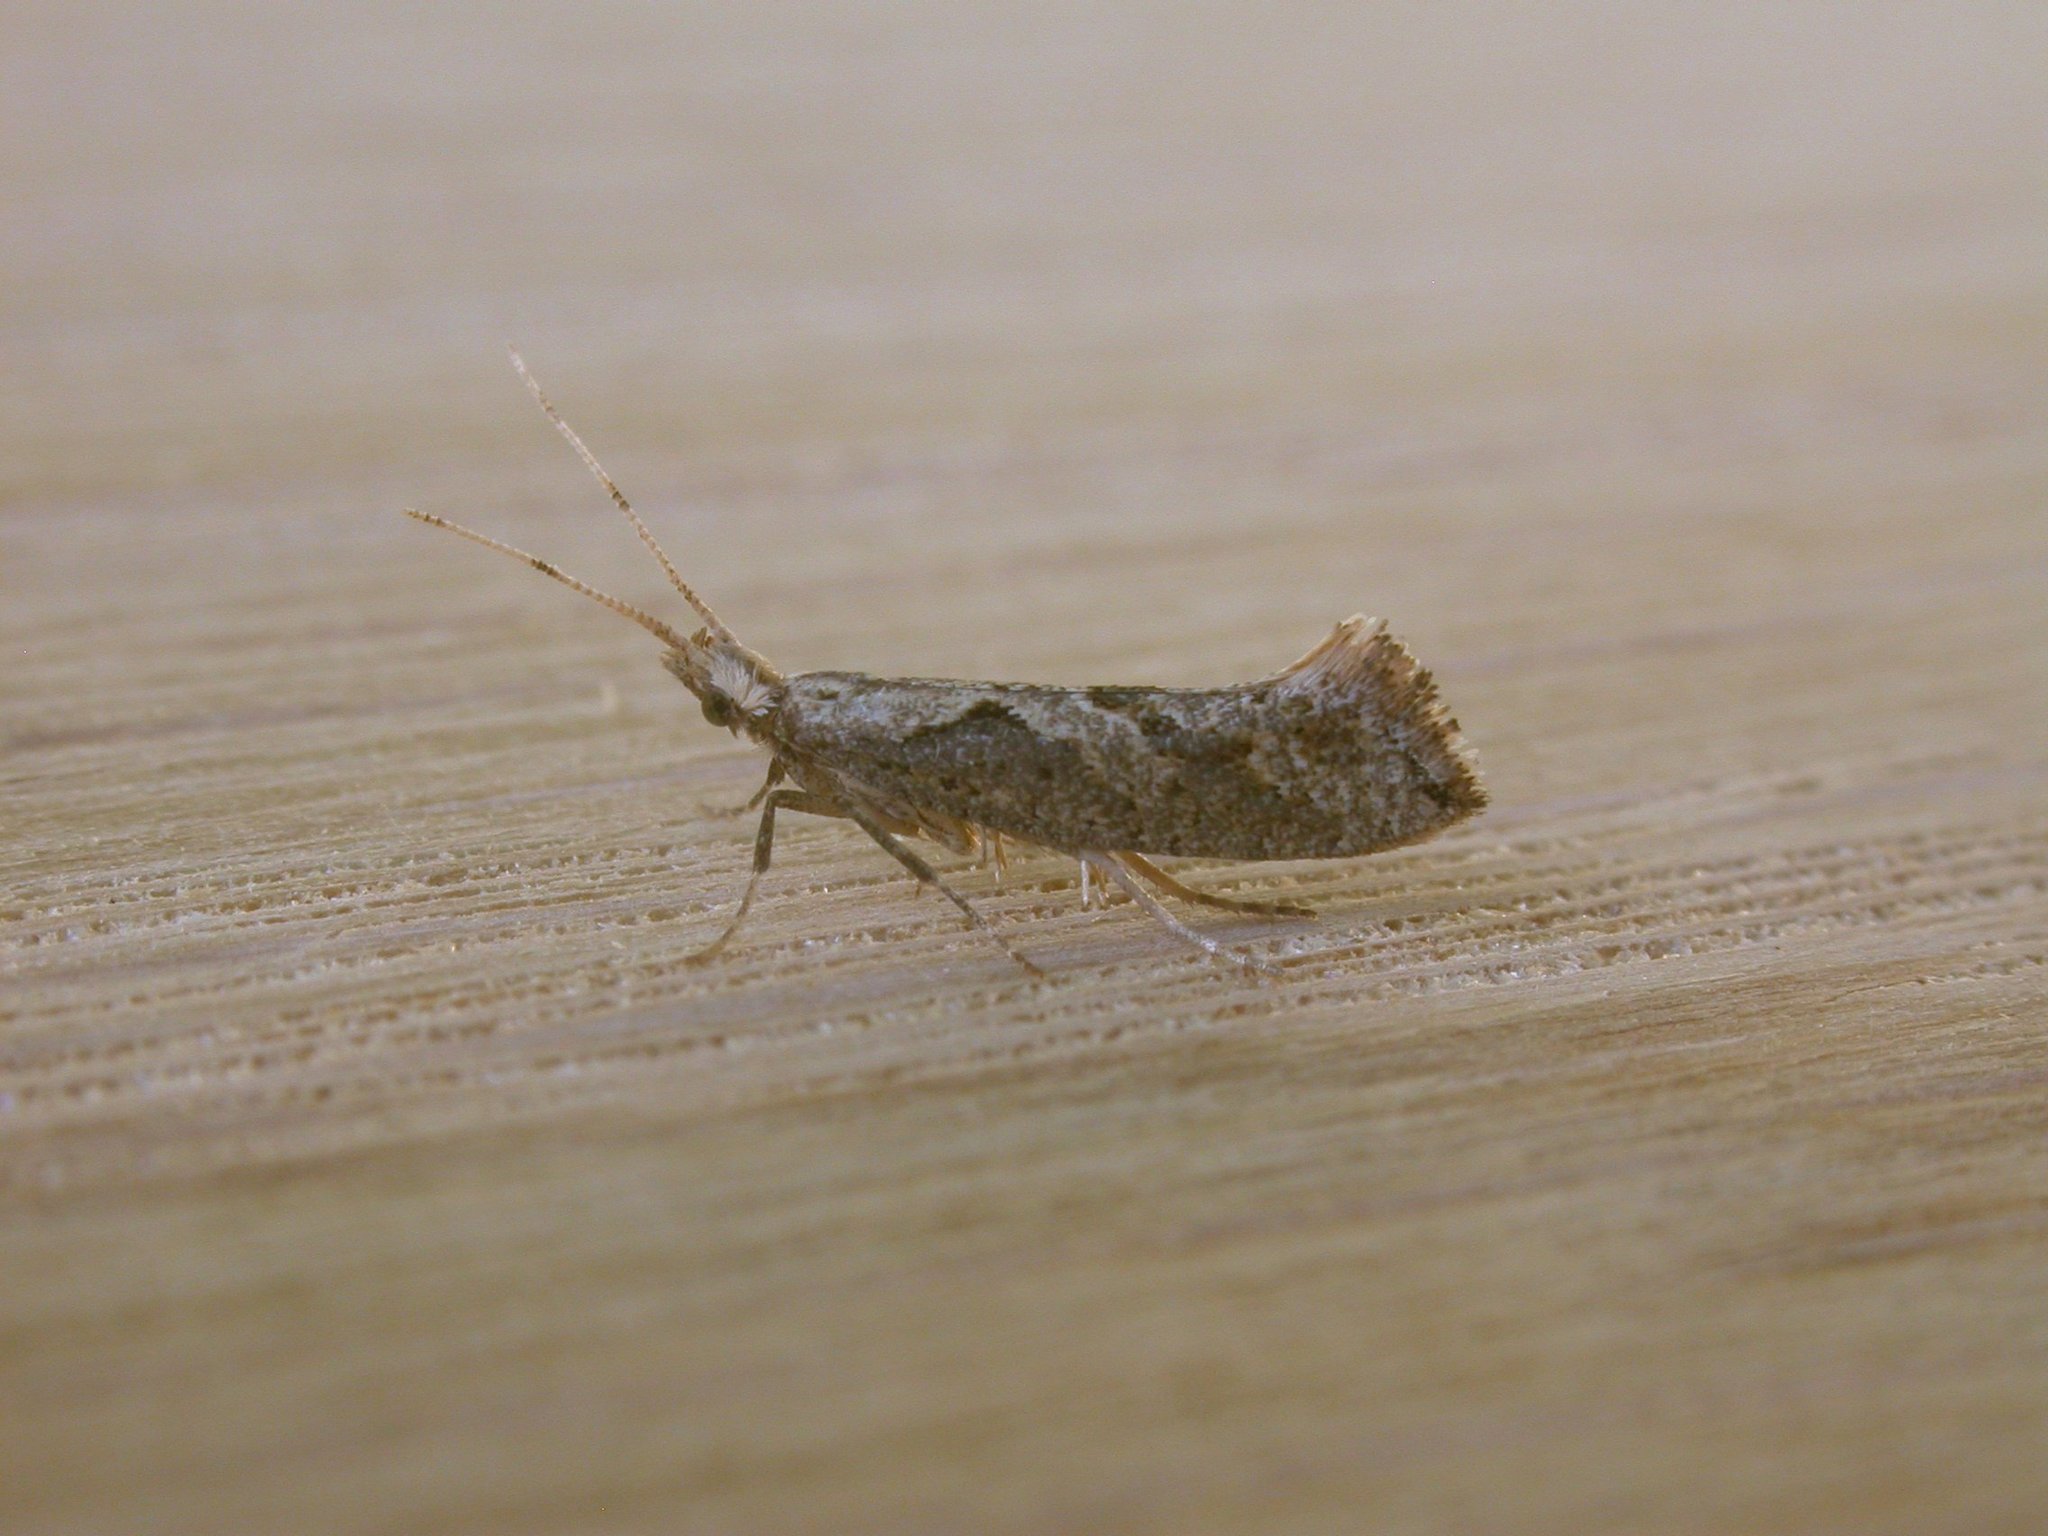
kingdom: Animalia
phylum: Arthropoda
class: Insecta
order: Lepidoptera
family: Plutellidae
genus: Leuroperna
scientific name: Leuroperna sera
